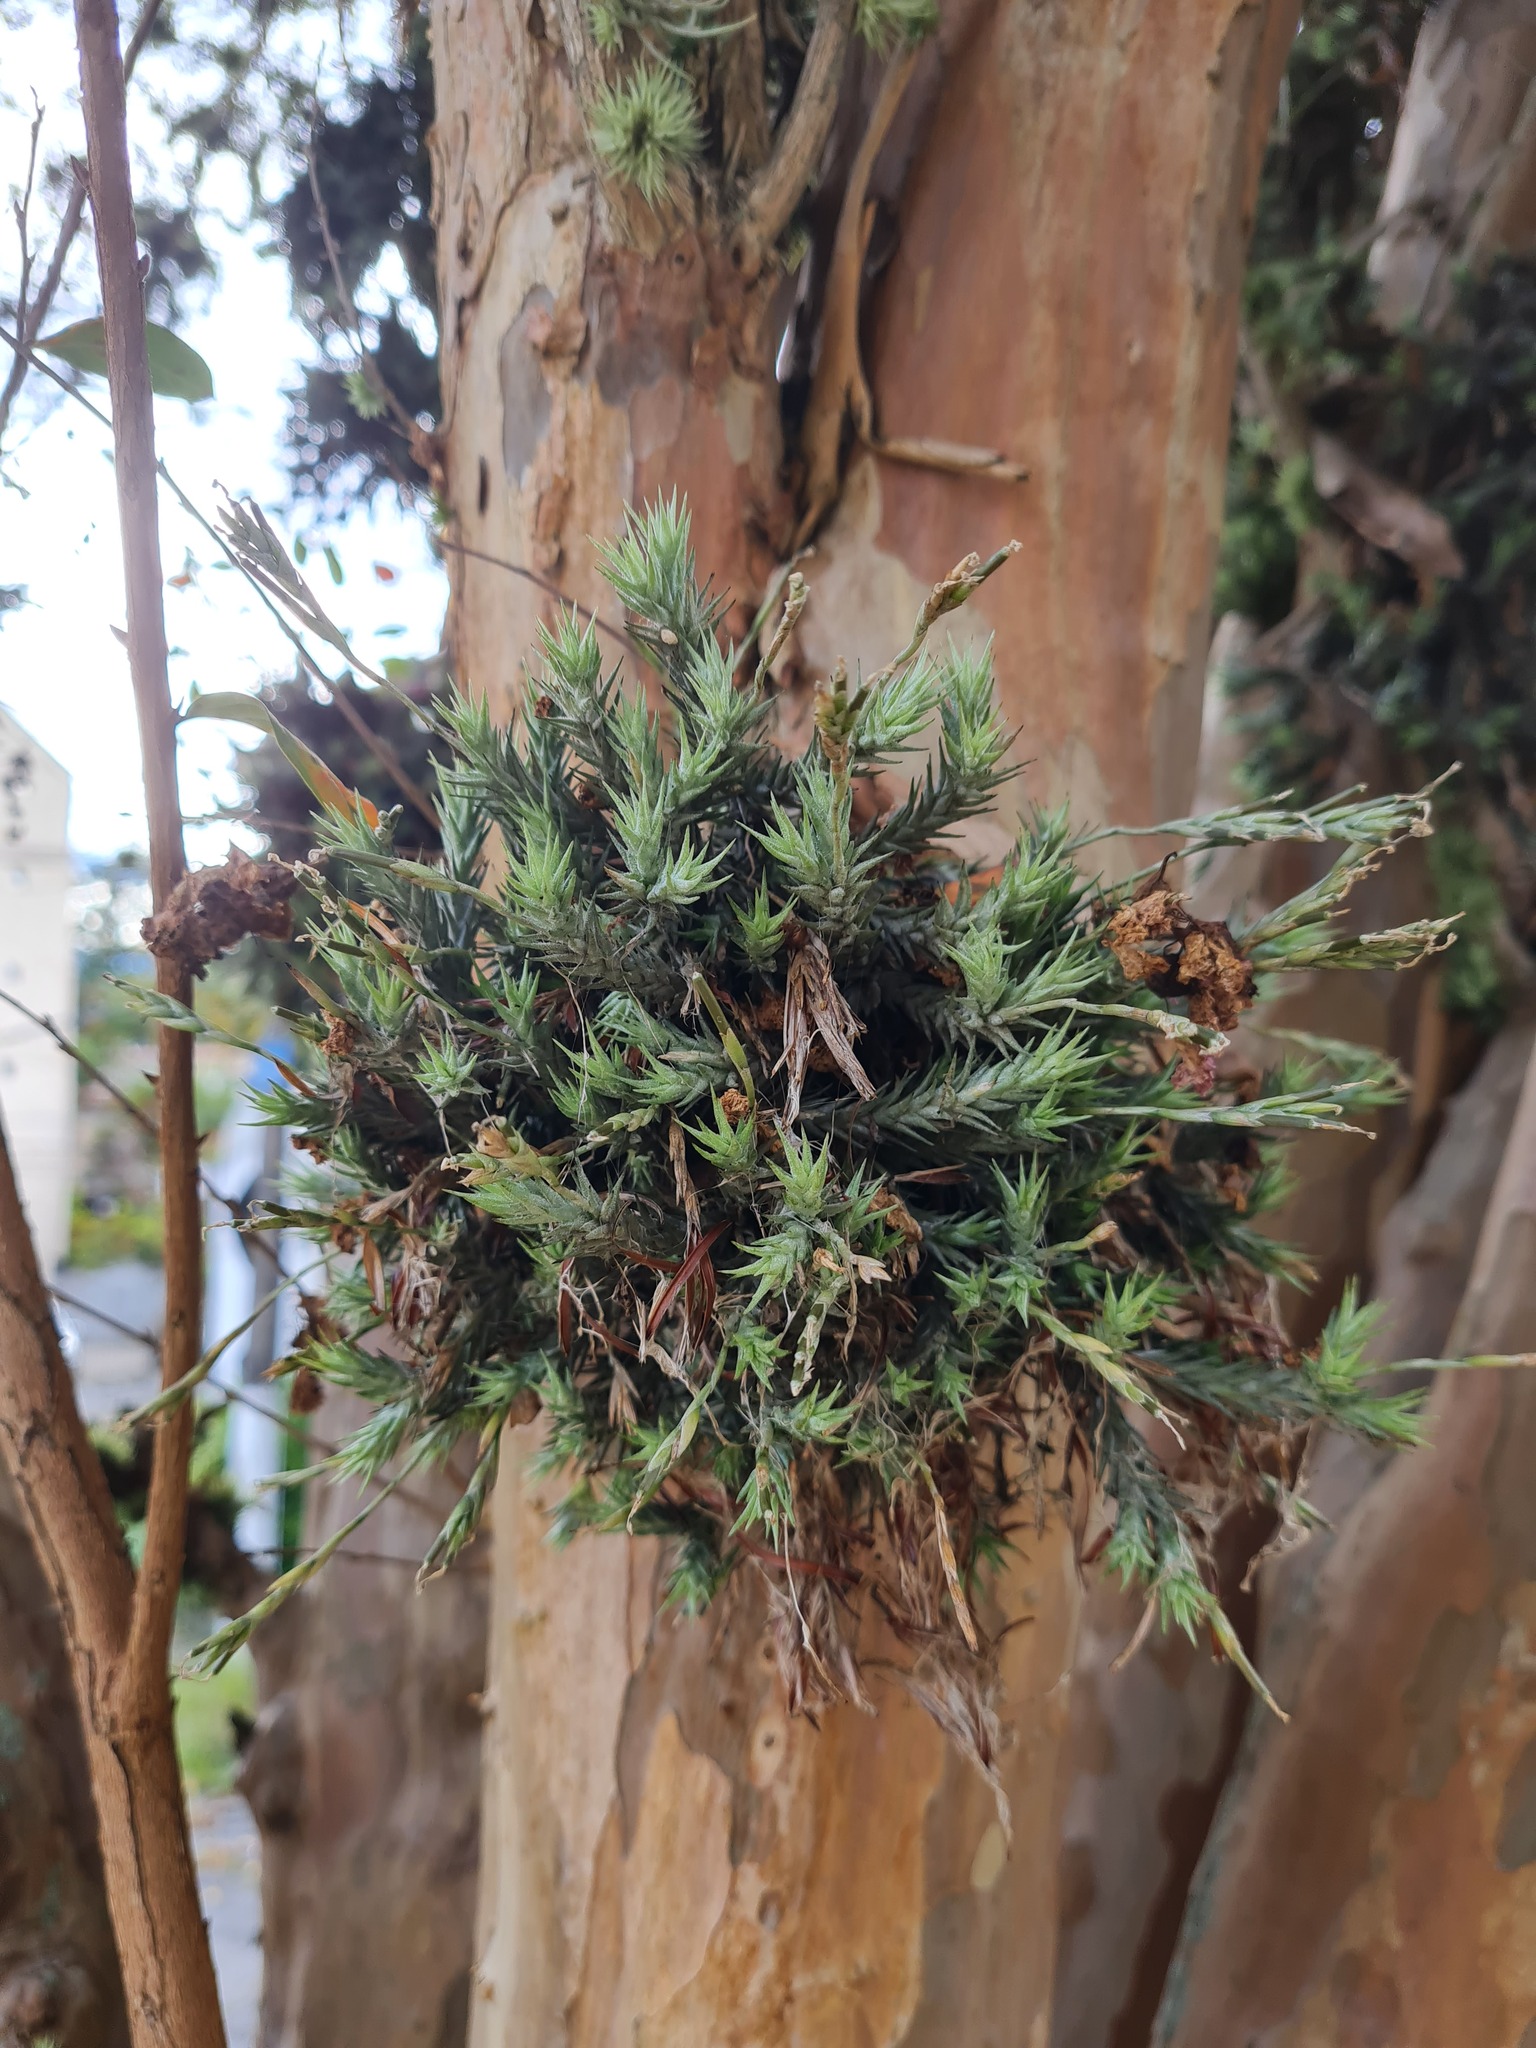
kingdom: Plantae
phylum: Tracheophyta
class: Liliopsida
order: Poales
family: Bromeliaceae
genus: Tillandsia
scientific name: Tillandsia tricholepis
